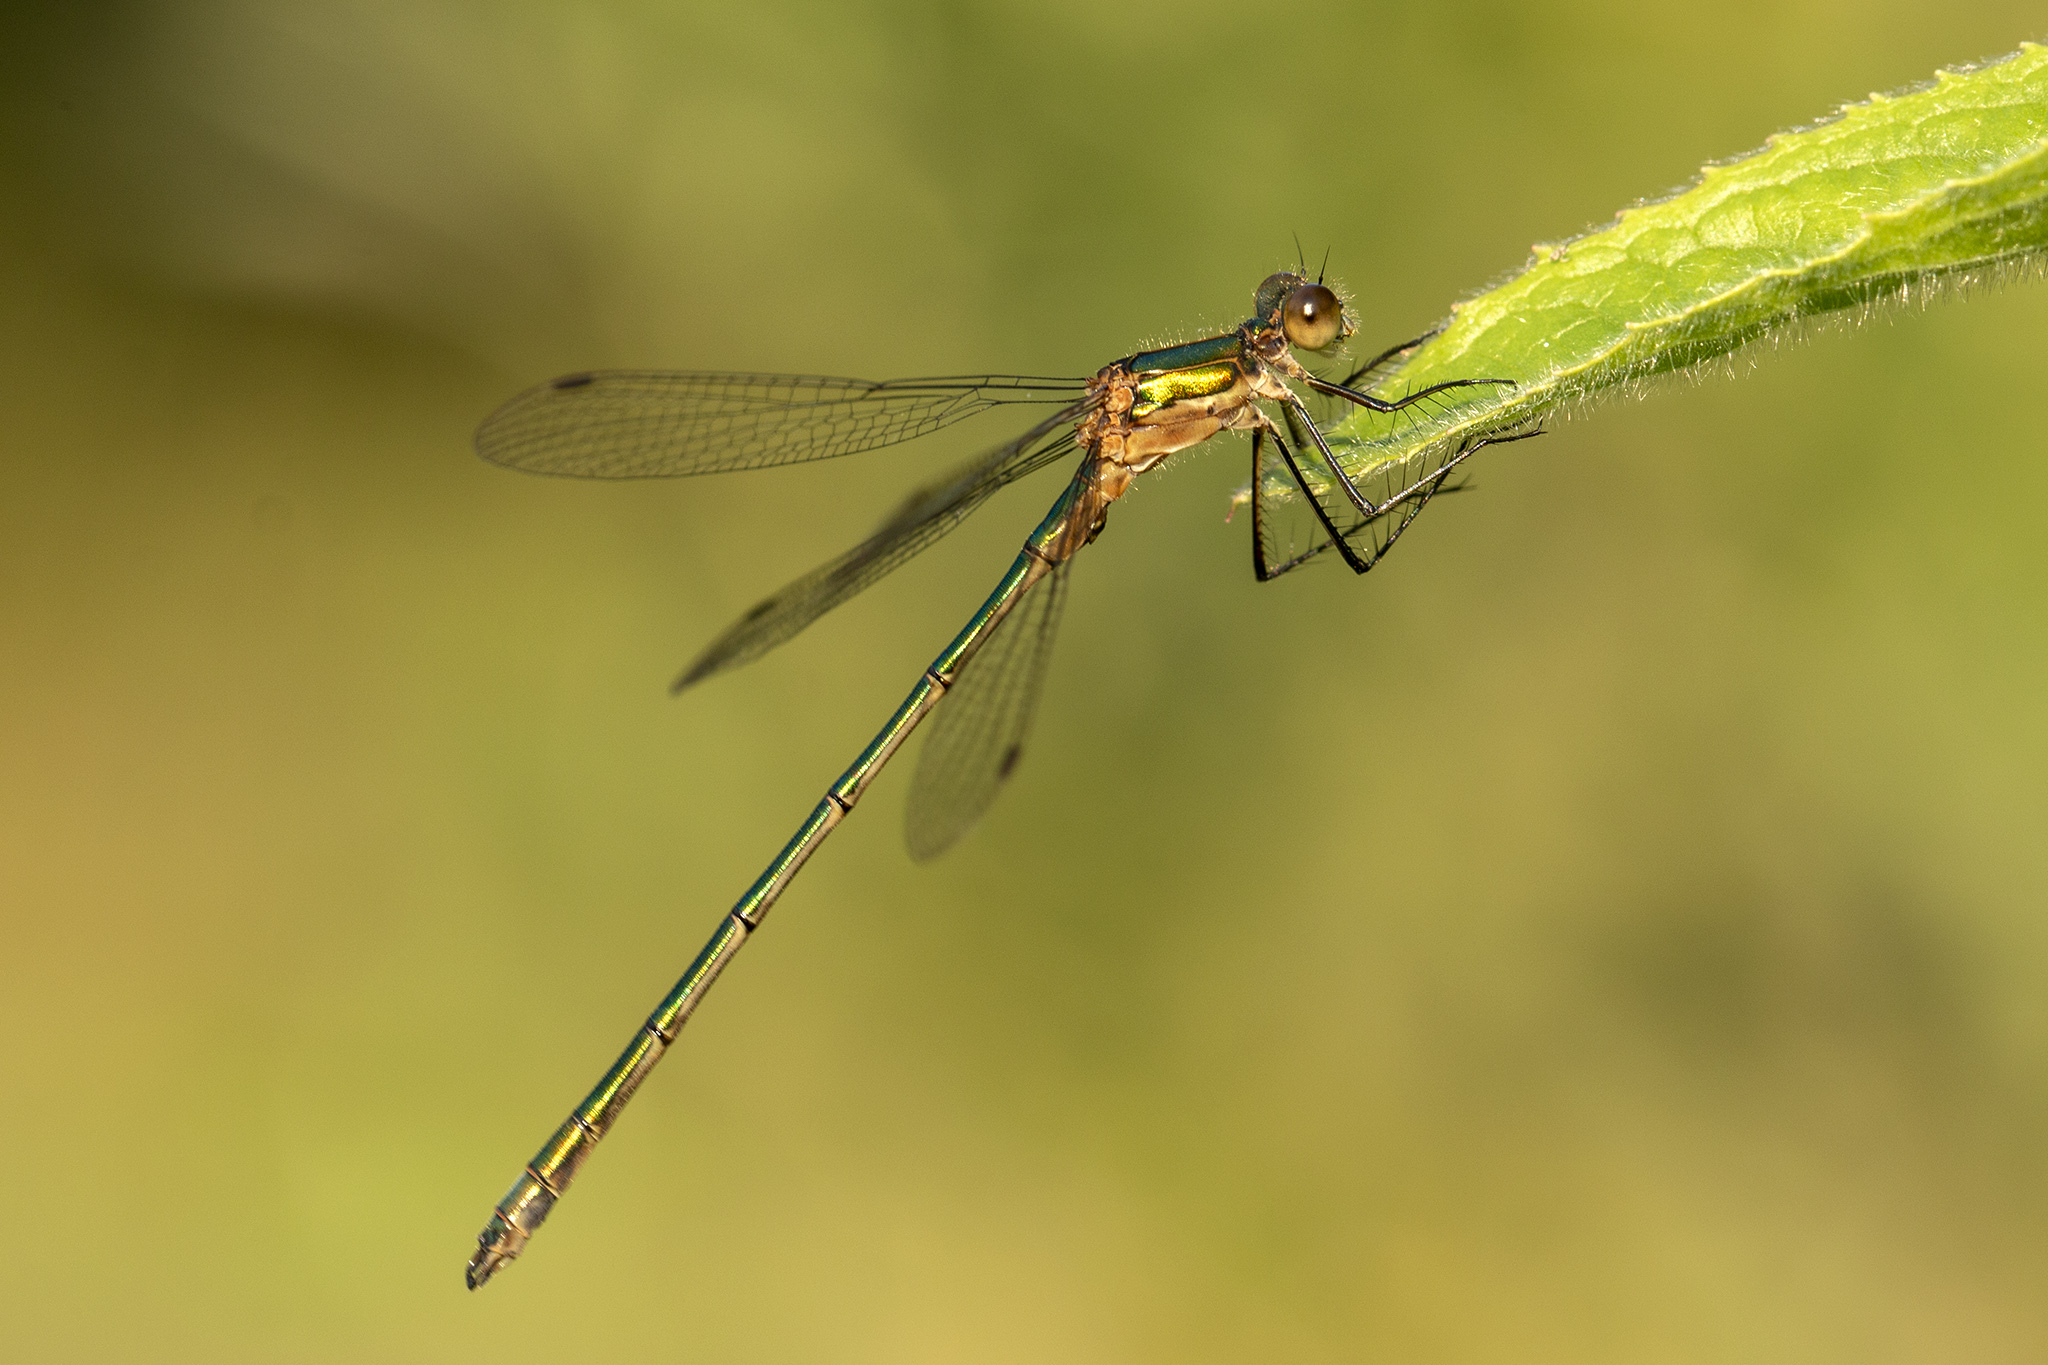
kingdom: Animalia
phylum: Arthropoda
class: Insecta
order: Odonata
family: Lestidae
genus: Lestes
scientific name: Lestes sponsa
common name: Common spreadwing
